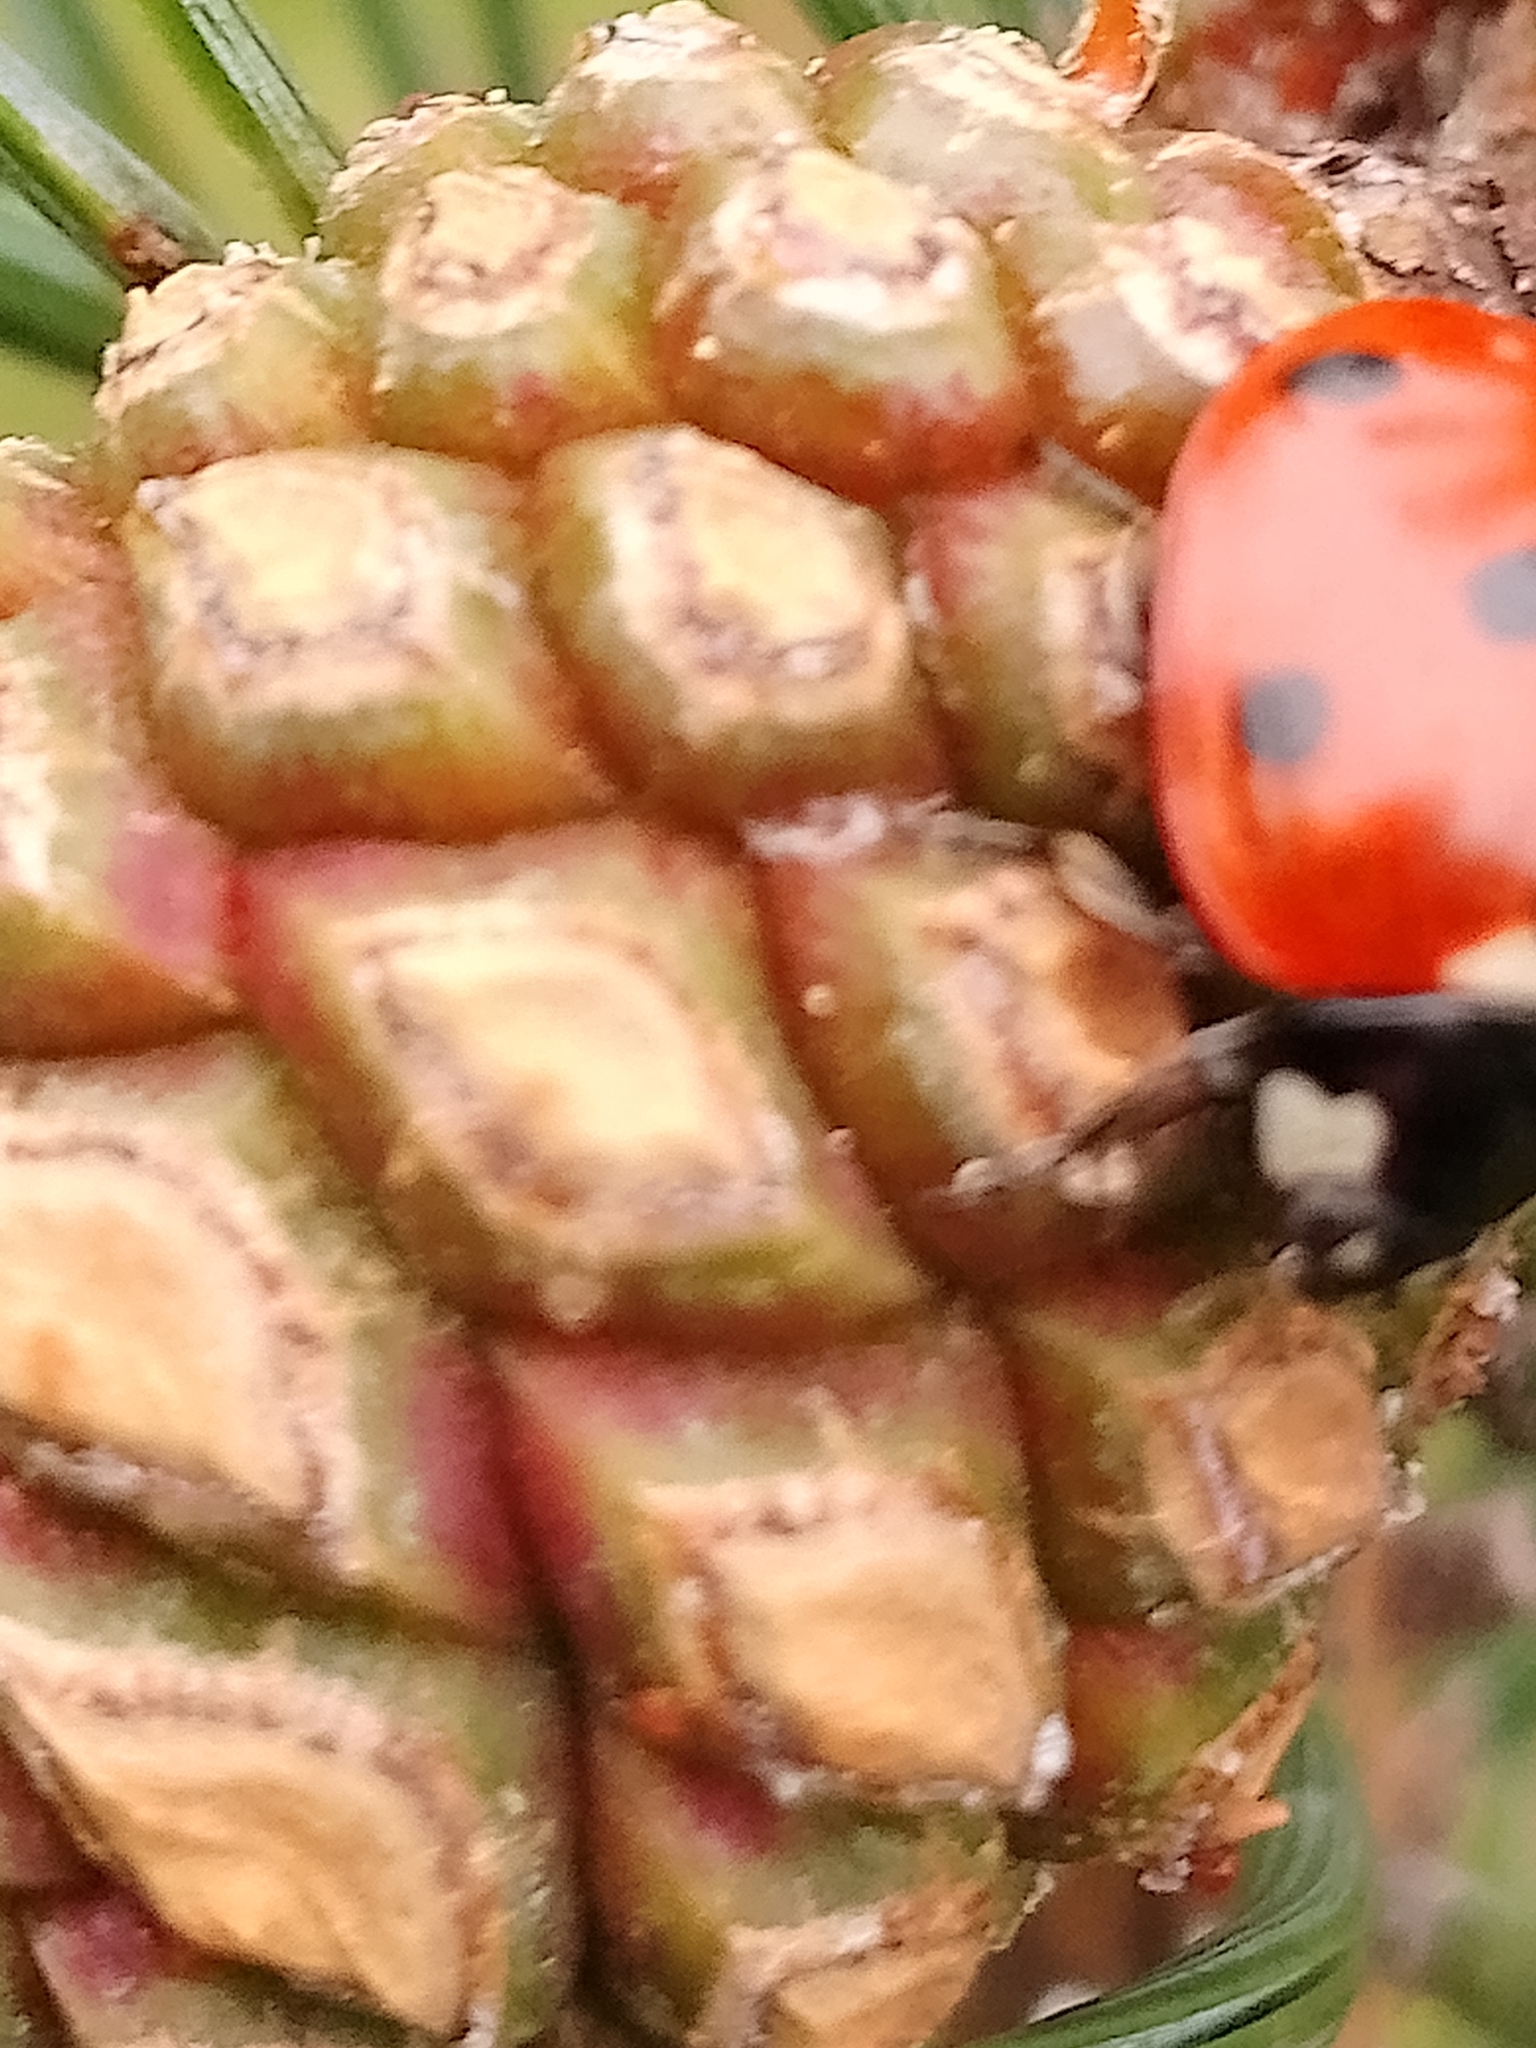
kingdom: Animalia
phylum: Arthropoda
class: Insecta
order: Coleoptera
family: Coccinellidae
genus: Coccinella
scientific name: Coccinella septempunctata
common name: Sevenspotted lady beetle
